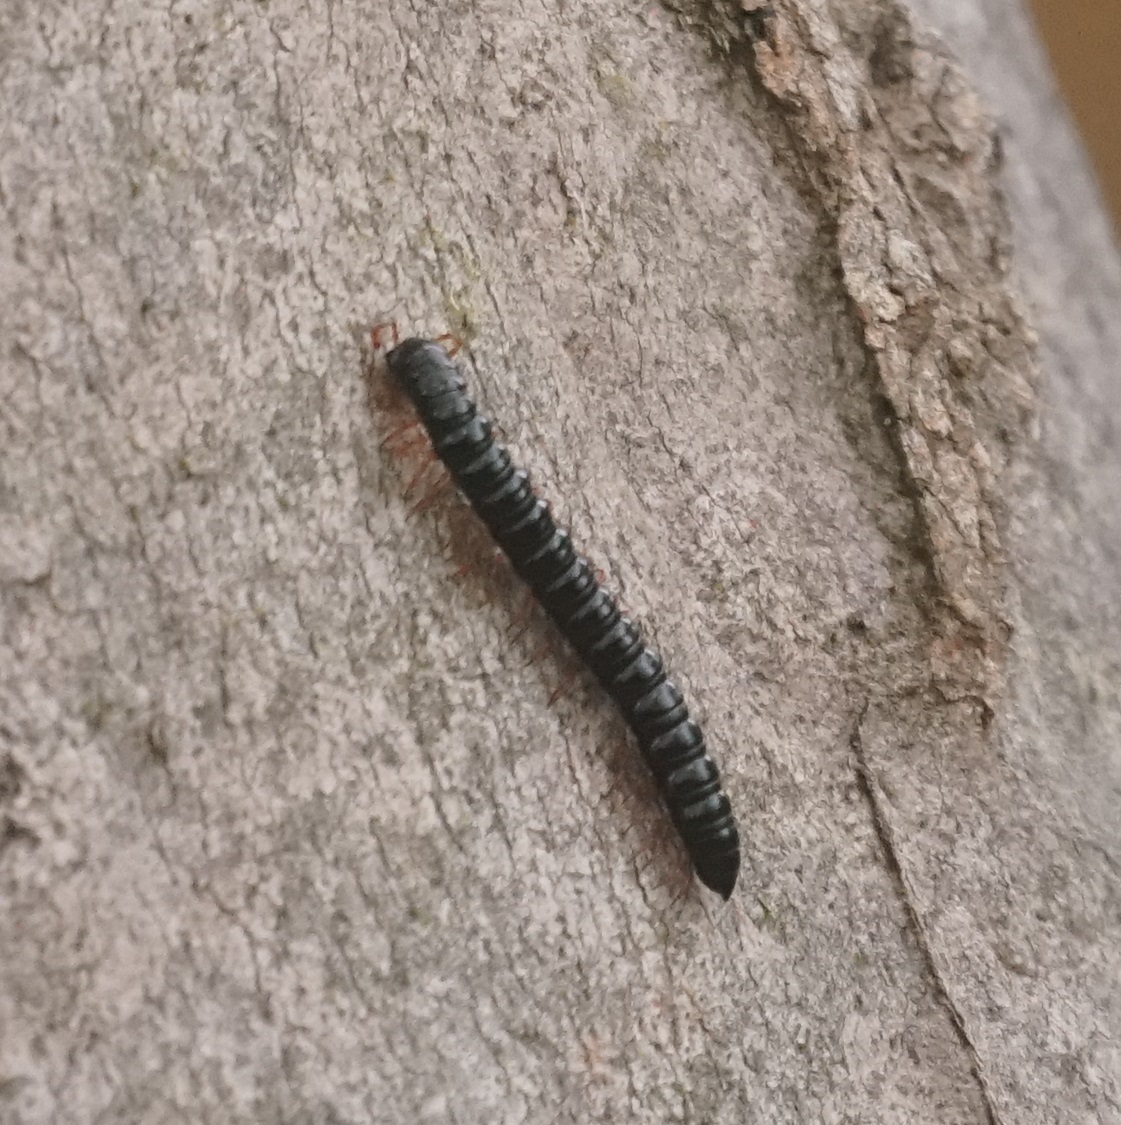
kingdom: Animalia
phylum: Arthropoda
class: Diplopoda
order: Polydesmida
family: Paradoxosomatidae
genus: Heterocladosoma
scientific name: Heterocladosoma
